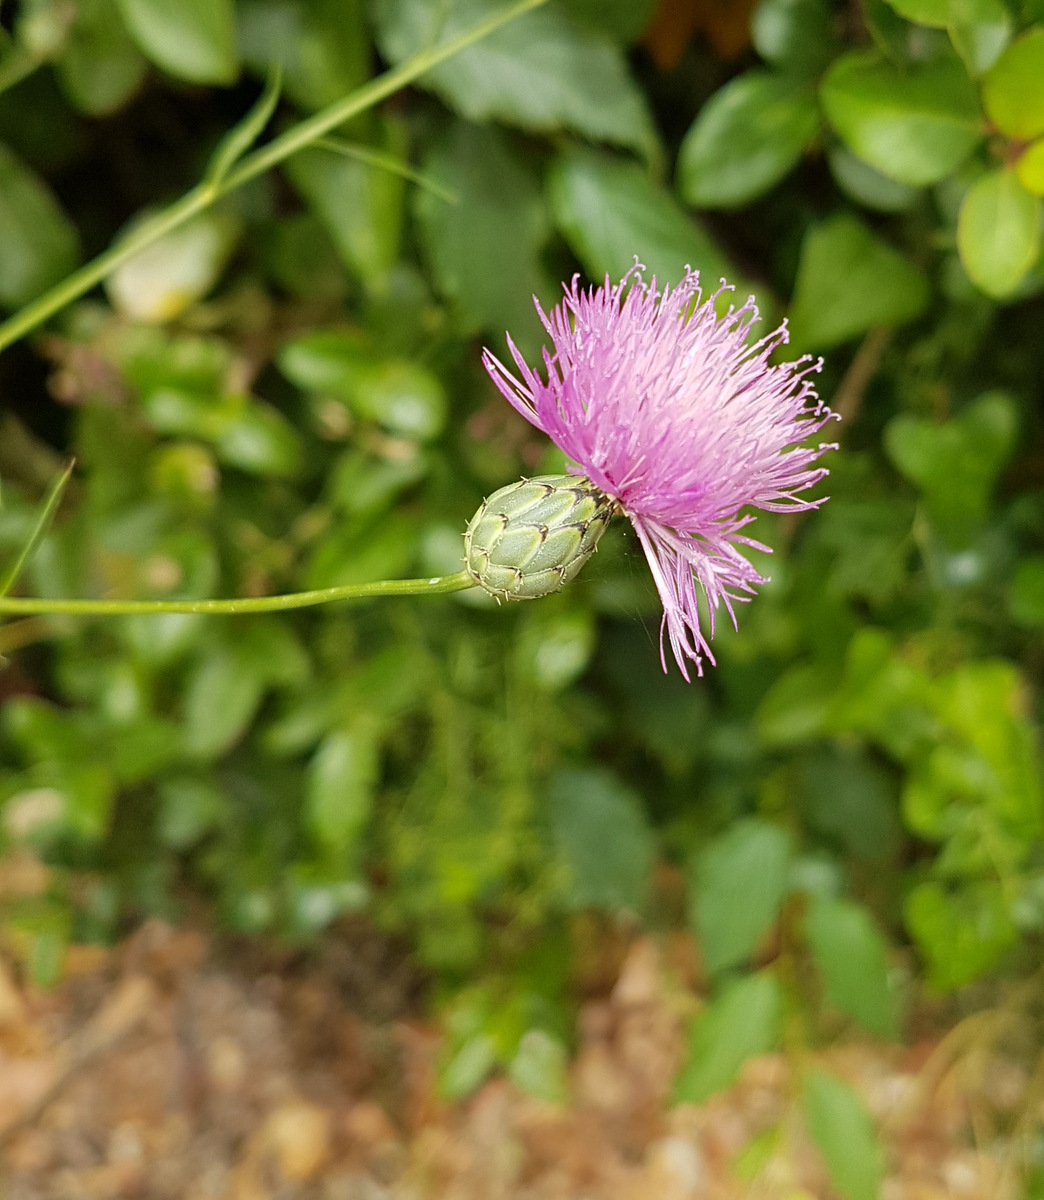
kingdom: Plantae
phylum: Tracheophyta
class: Magnoliopsida
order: Asterales
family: Asteraceae
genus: Mantisalca
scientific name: Mantisalca salmantica
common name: Dagger flower
